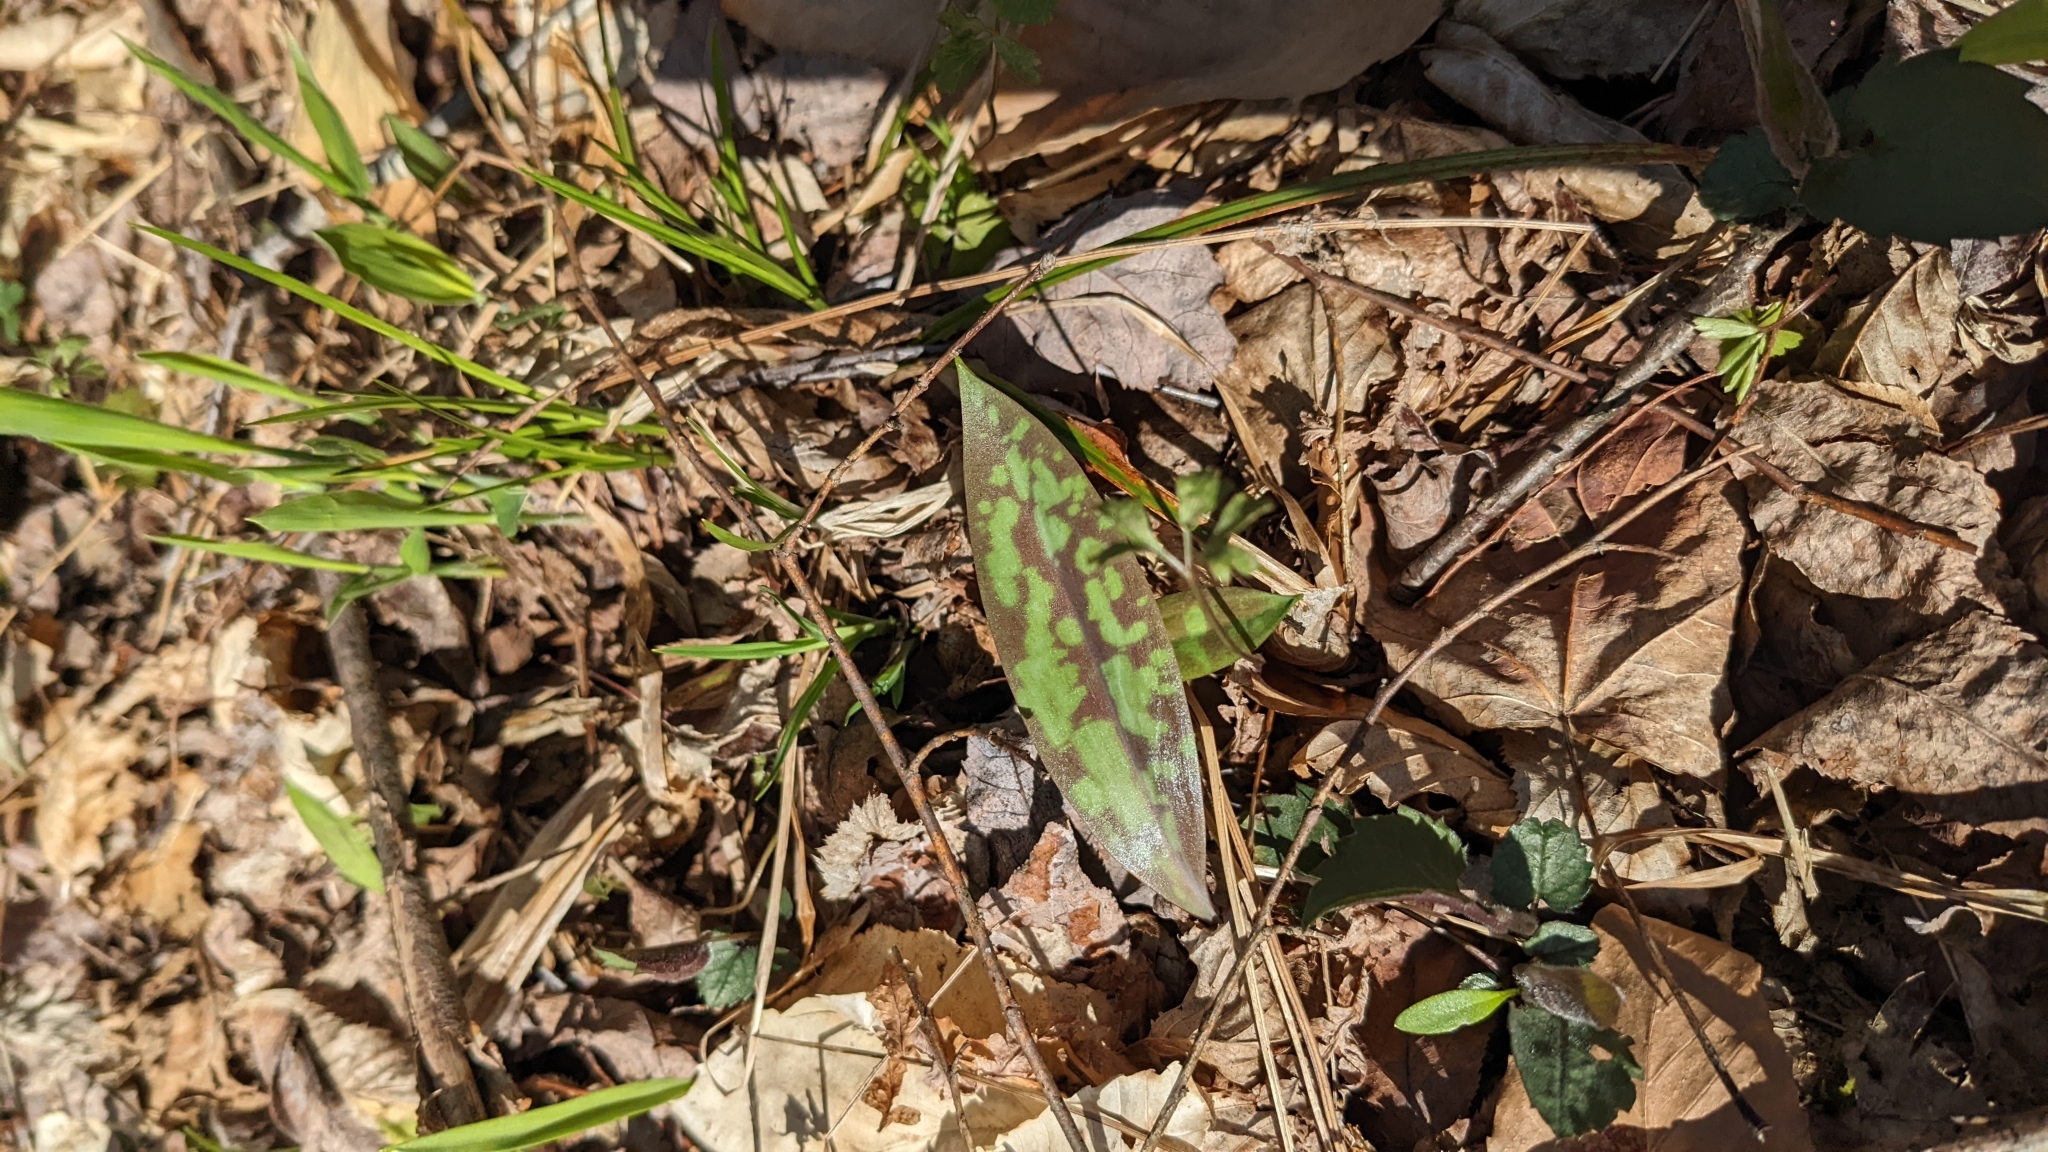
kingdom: Plantae
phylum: Tracheophyta
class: Liliopsida
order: Liliales
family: Liliaceae
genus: Erythronium
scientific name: Erythronium americanum
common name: Yellow adder's-tongue
